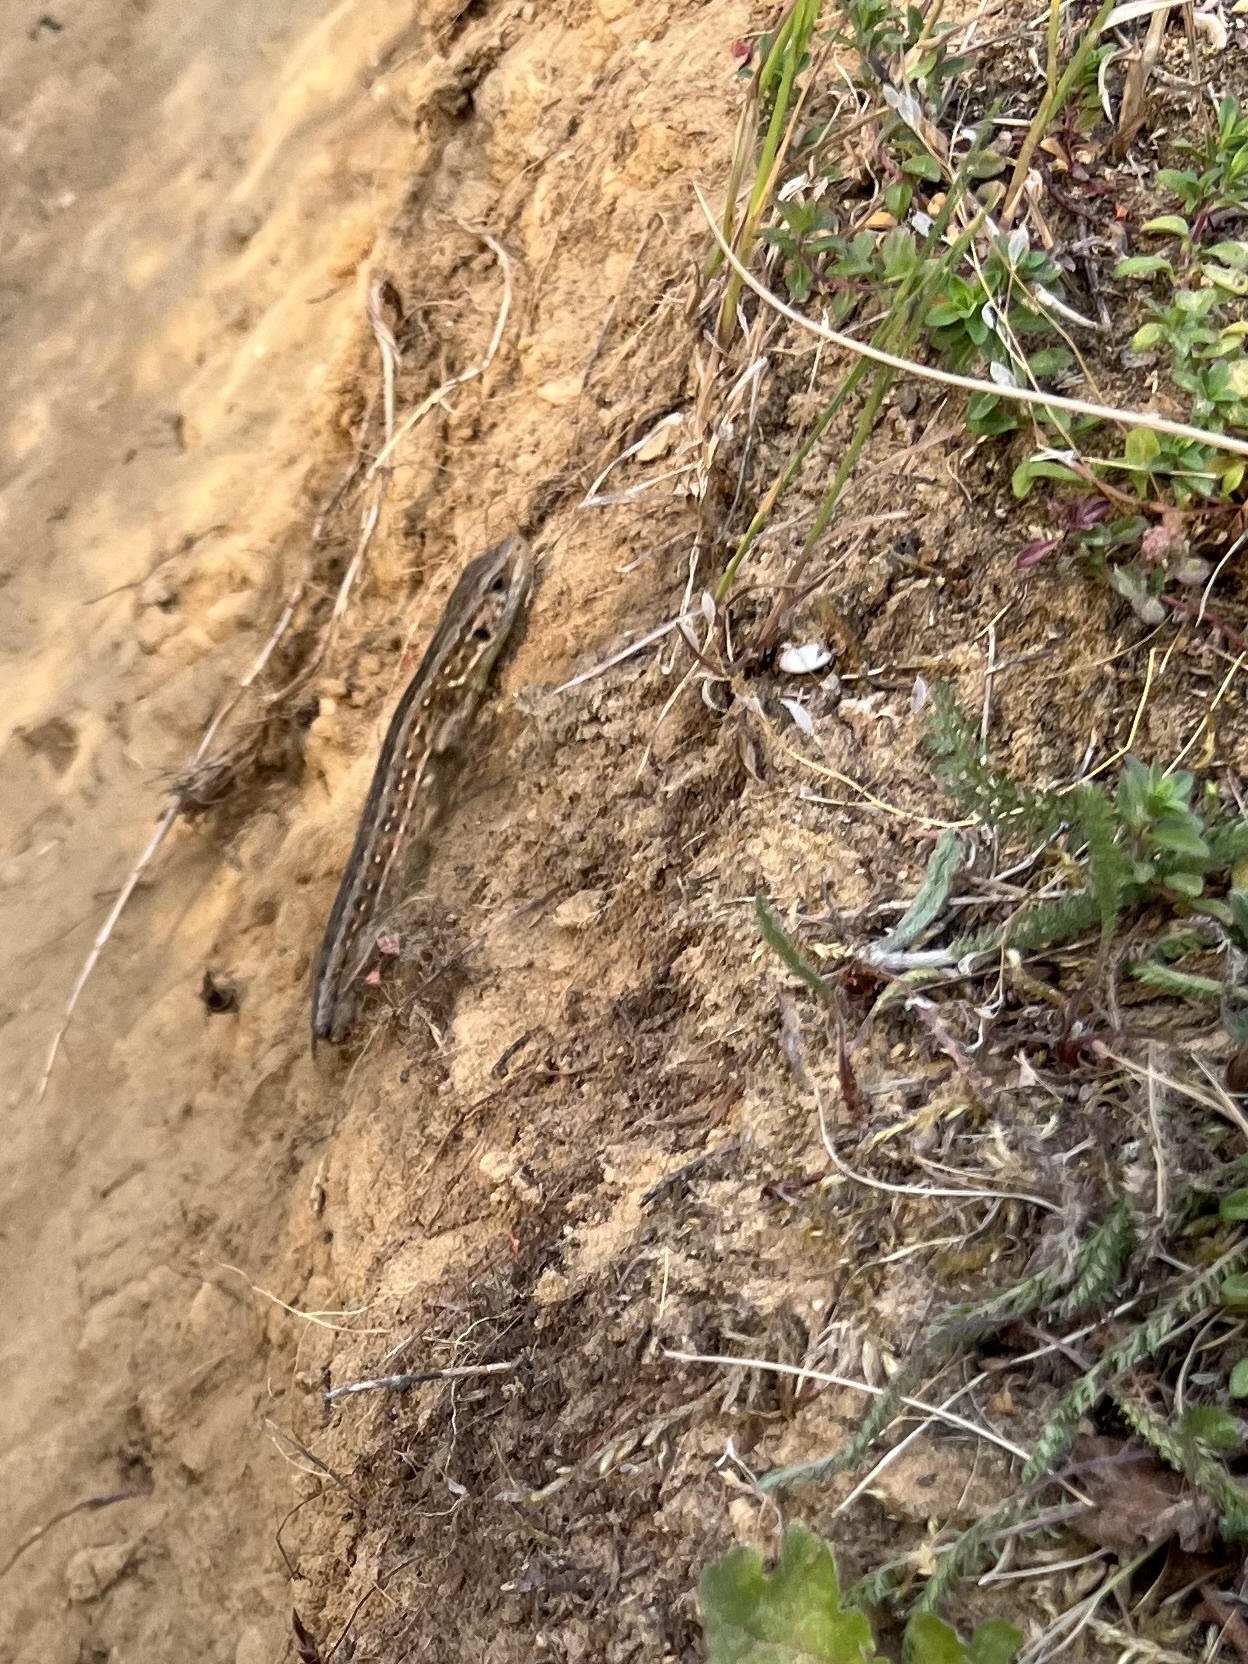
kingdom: Animalia
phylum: Chordata
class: Squamata
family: Lacertidae
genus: Lacerta
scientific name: Lacerta agilis
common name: Sand lizard
